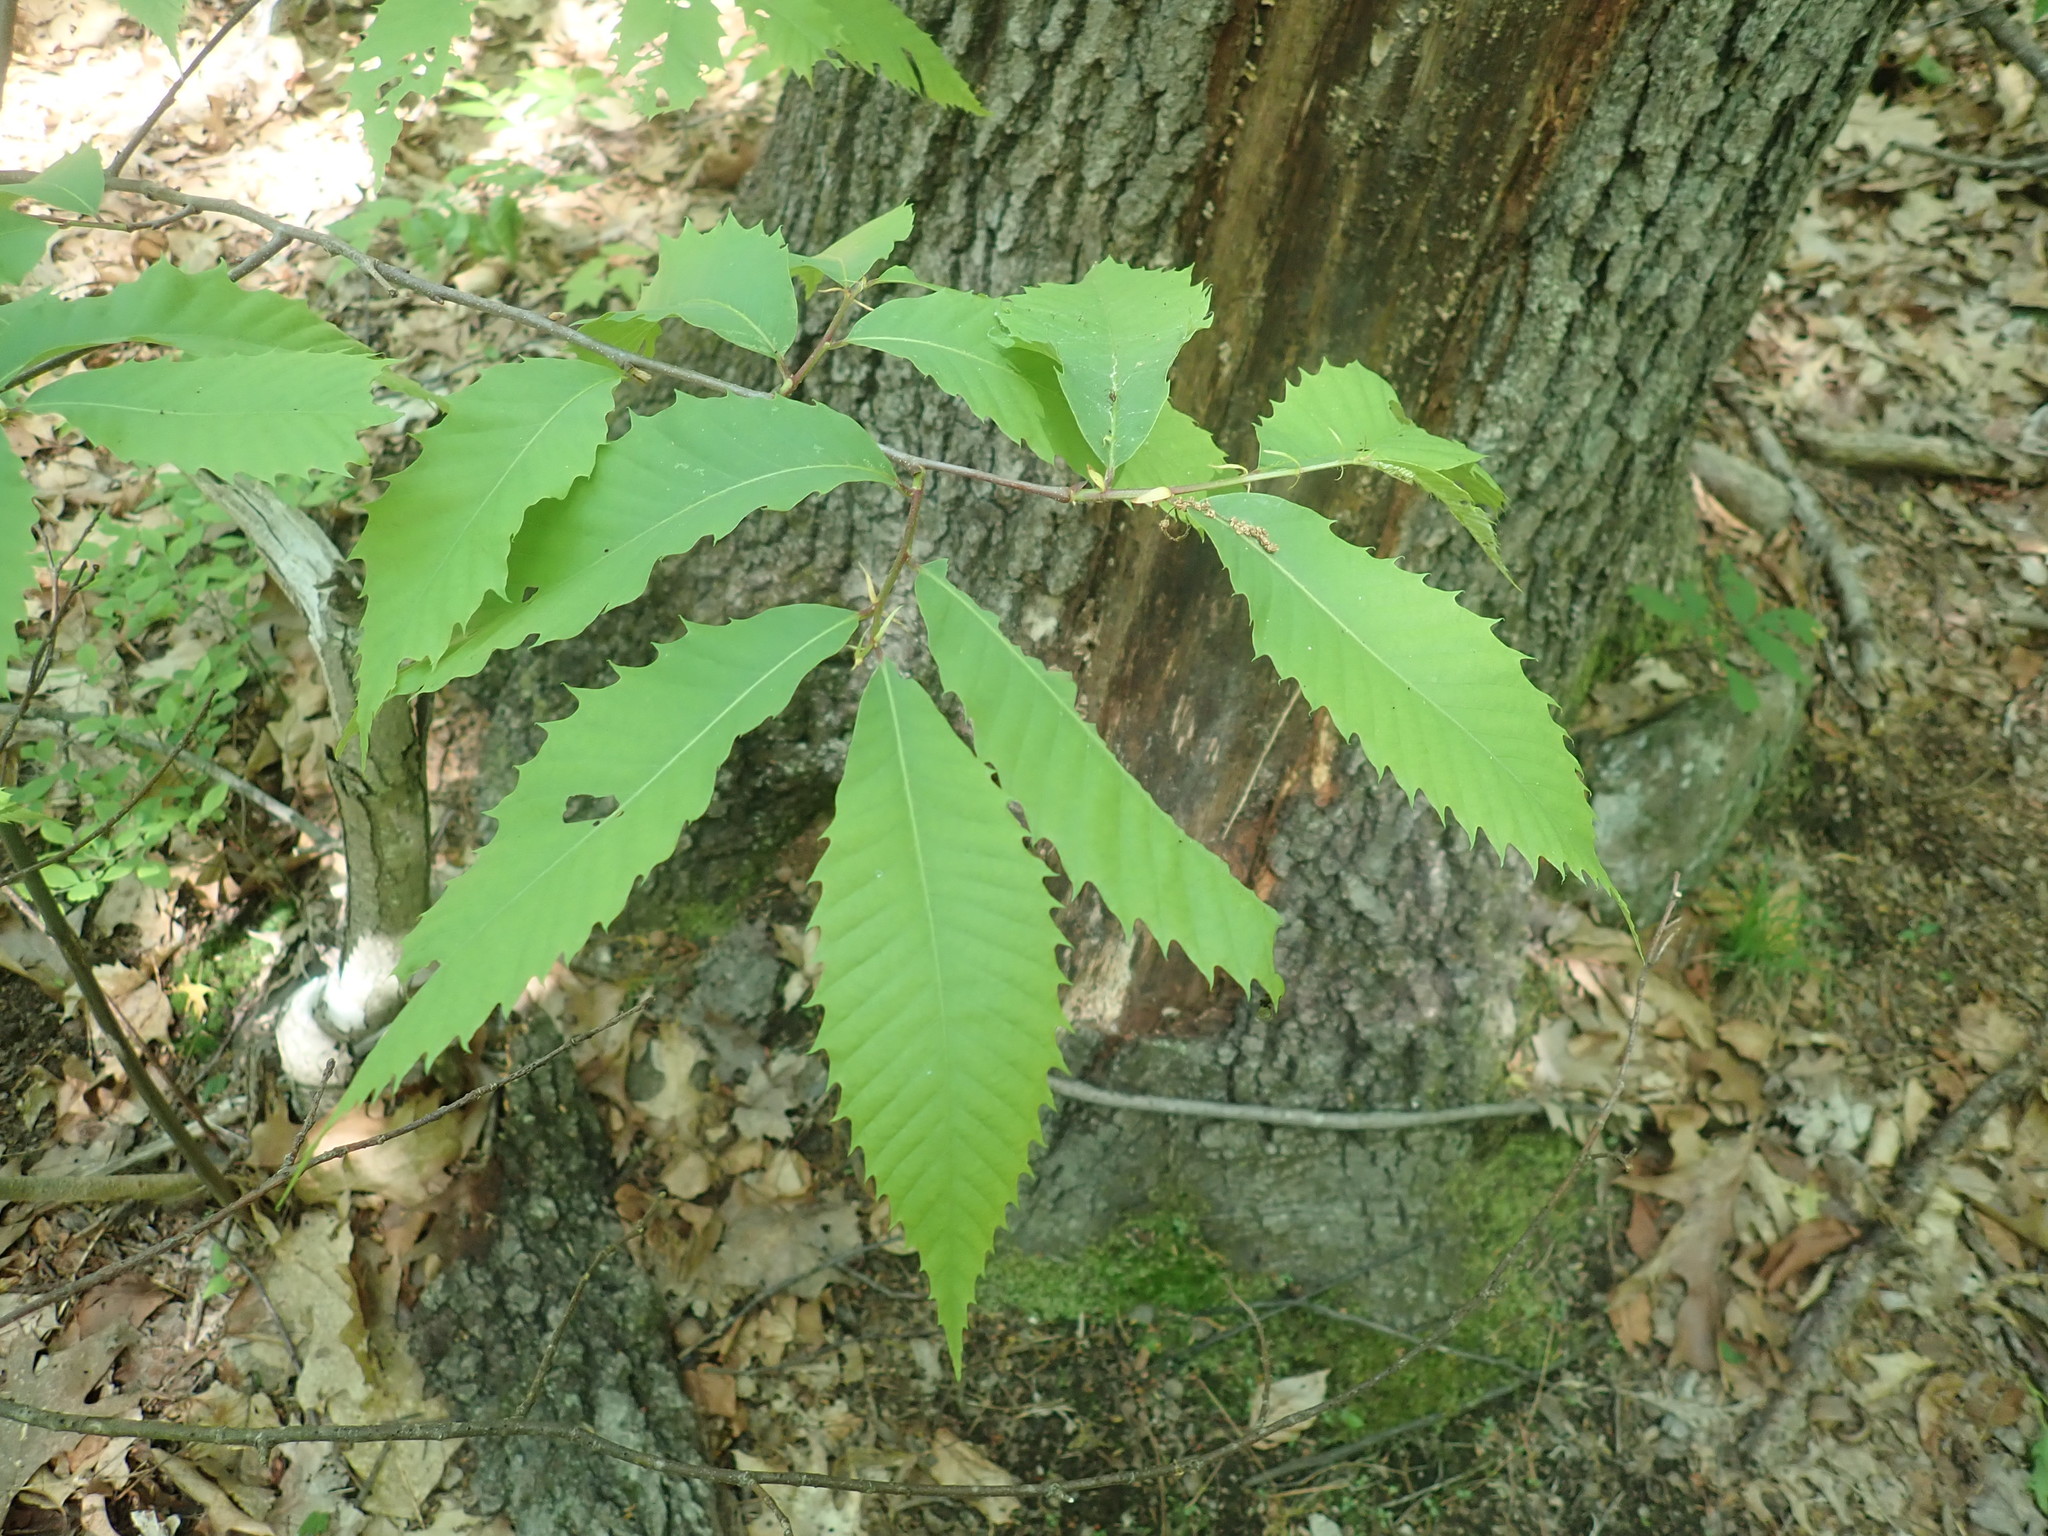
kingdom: Plantae
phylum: Tracheophyta
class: Magnoliopsida
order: Fagales
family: Fagaceae
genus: Castanea
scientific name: Castanea dentata
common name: American chestnut
